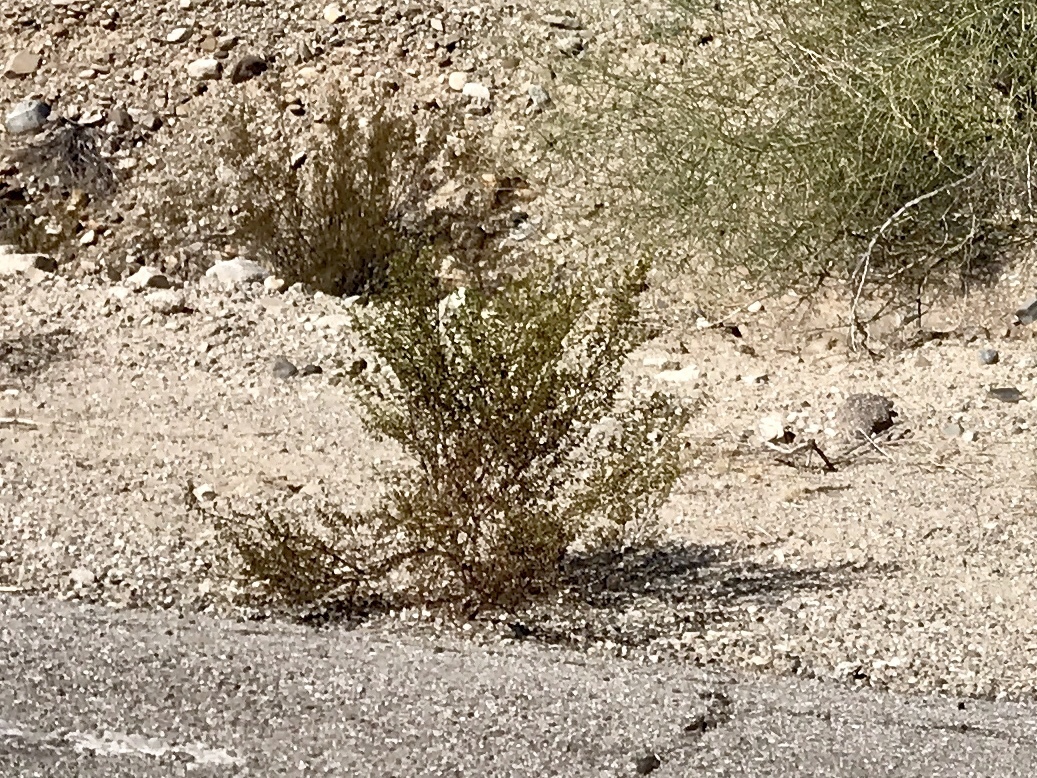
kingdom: Plantae
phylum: Tracheophyta
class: Magnoliopsida
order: Zygophyllales
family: Zygophyllaceae
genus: Larrea
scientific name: Larrea tridentata
